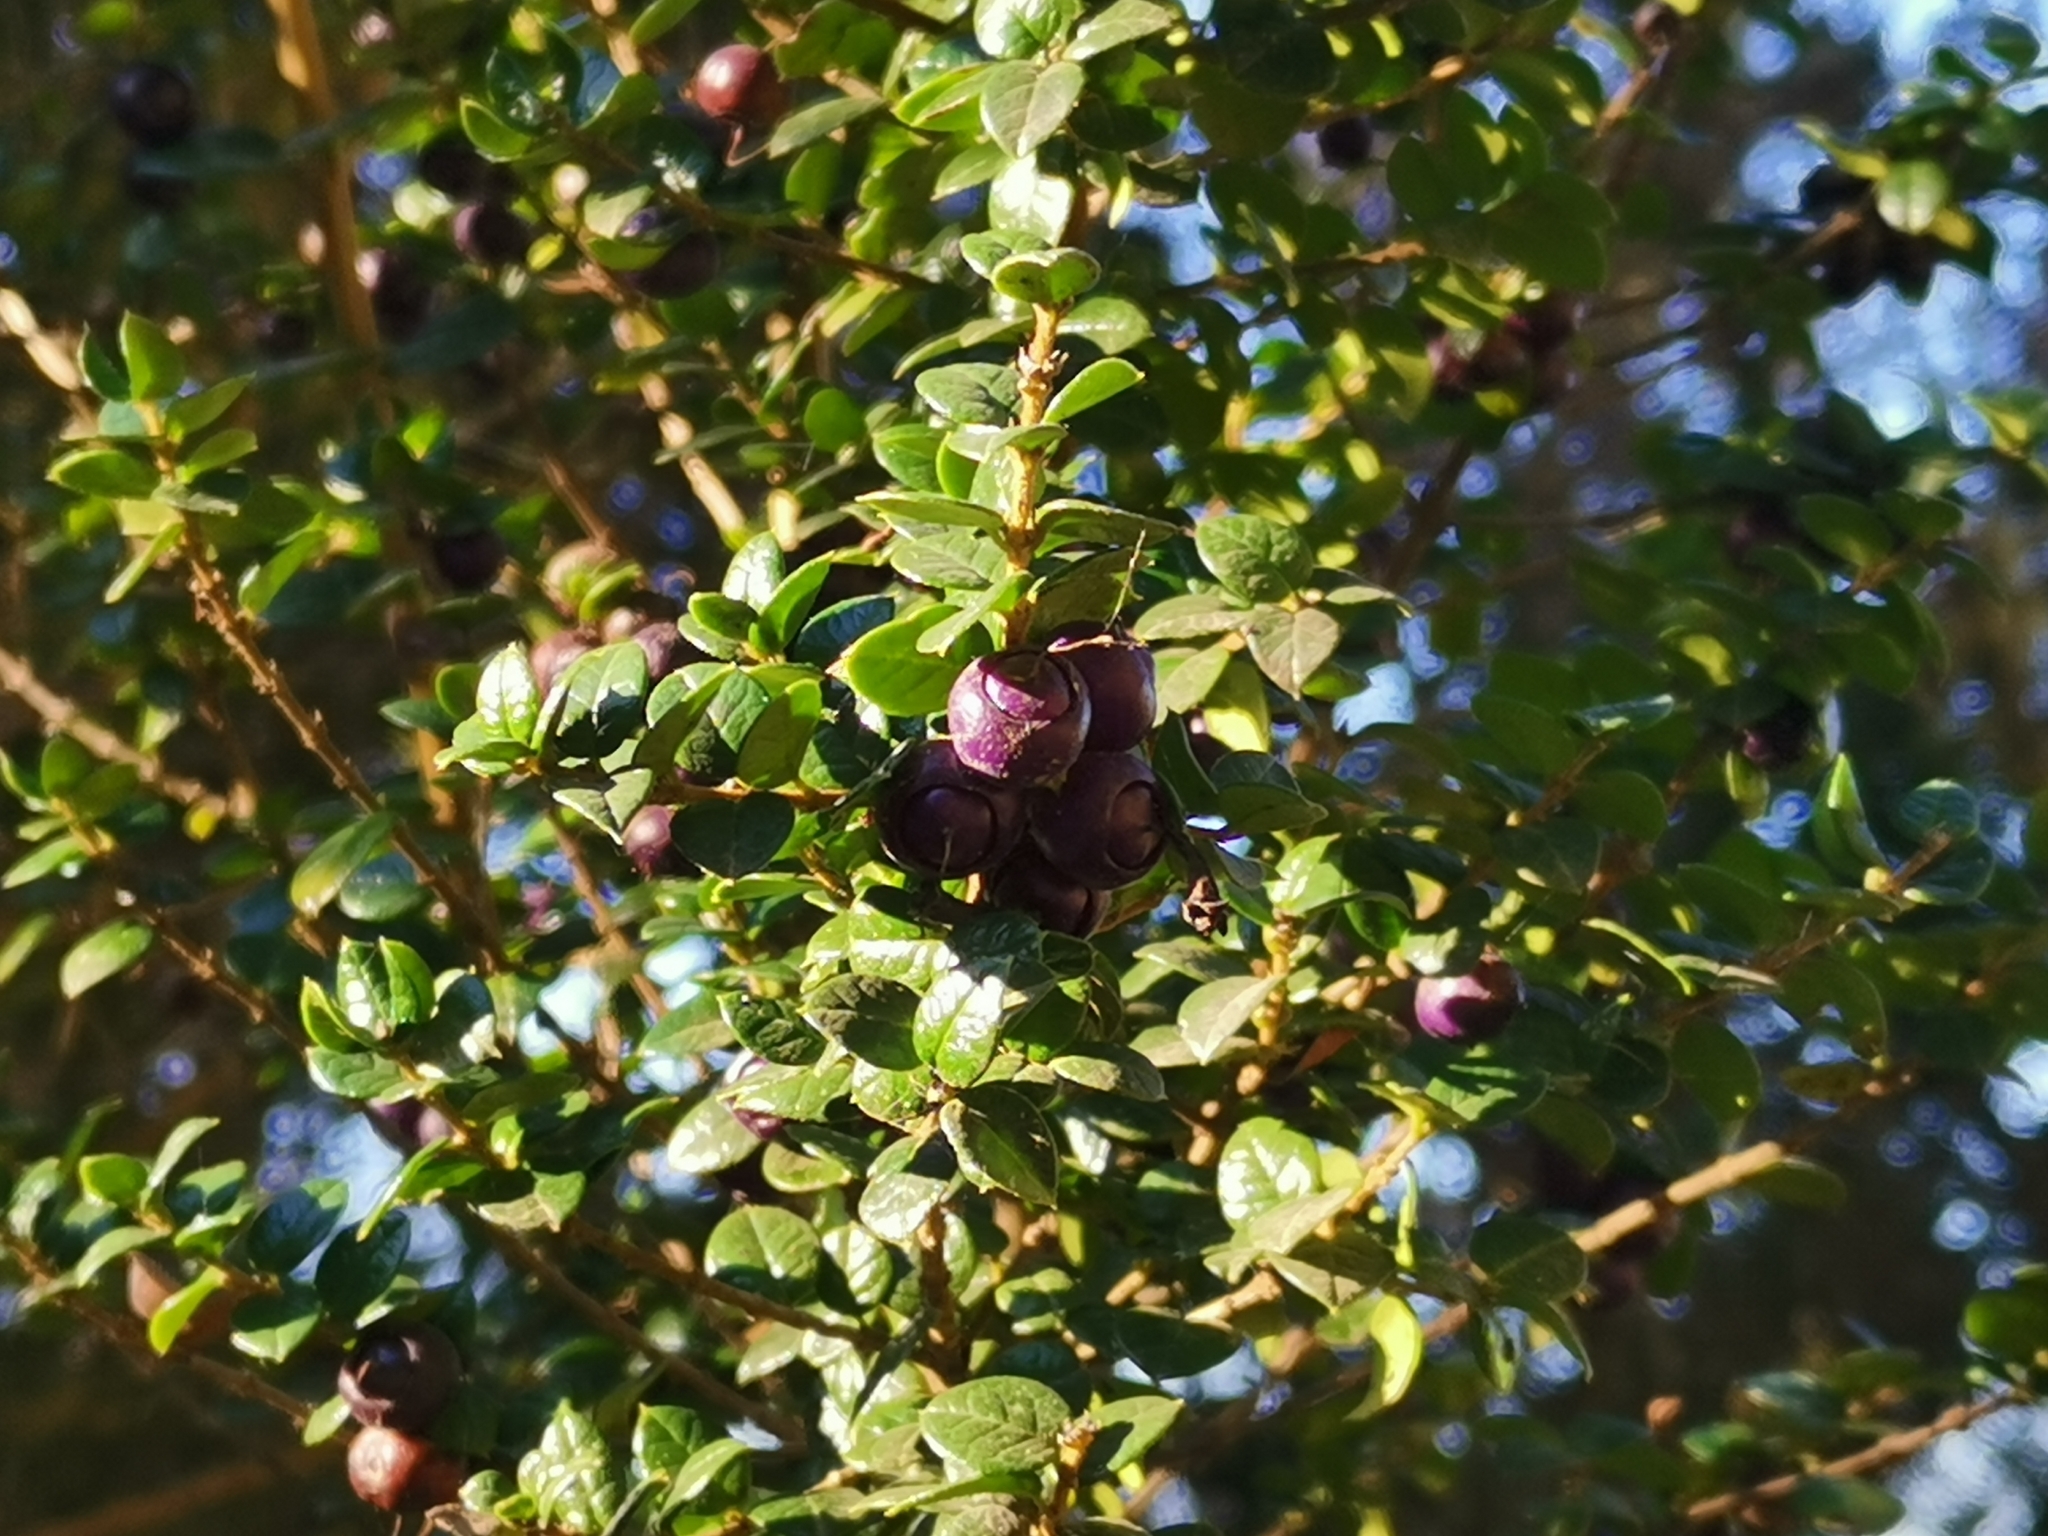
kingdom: Plantae
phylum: Tracheophyta
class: Magnoliopsida
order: Lamiales
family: Verbenaceae
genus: Rhaphithamnus
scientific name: Rhaphithamnus spinosus
